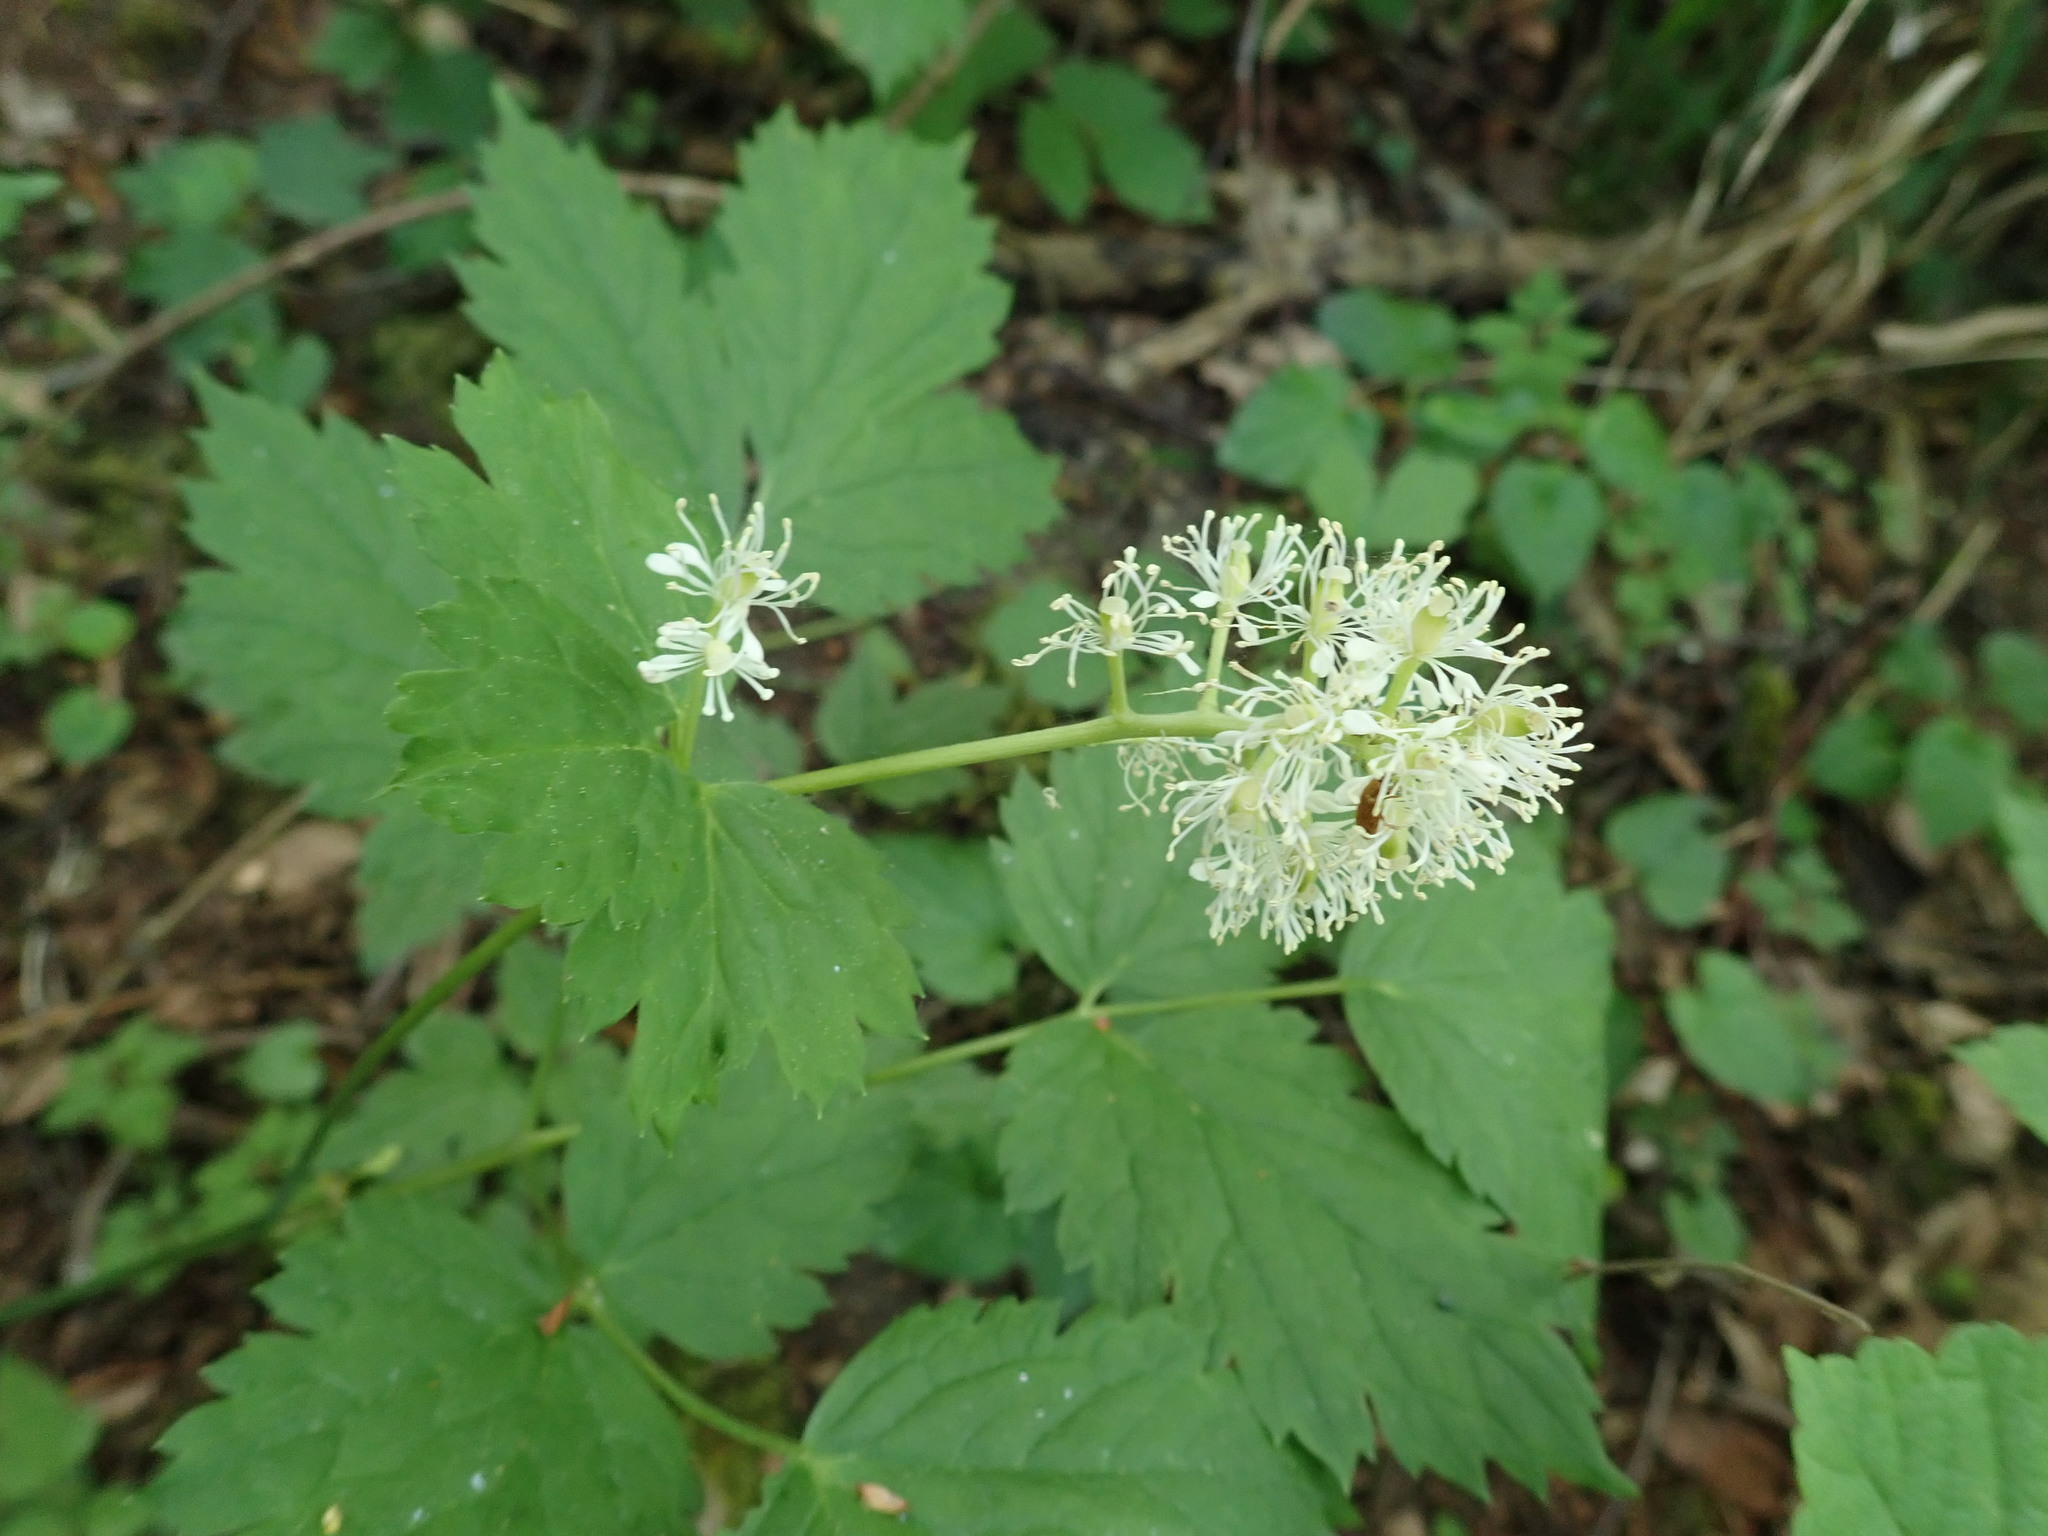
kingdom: Plantae
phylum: Tracheophyta
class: Magnoliopsida
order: Ranunculales
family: Ranunculaceae
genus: Actaea
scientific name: Actaea spicata
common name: Baneberry
